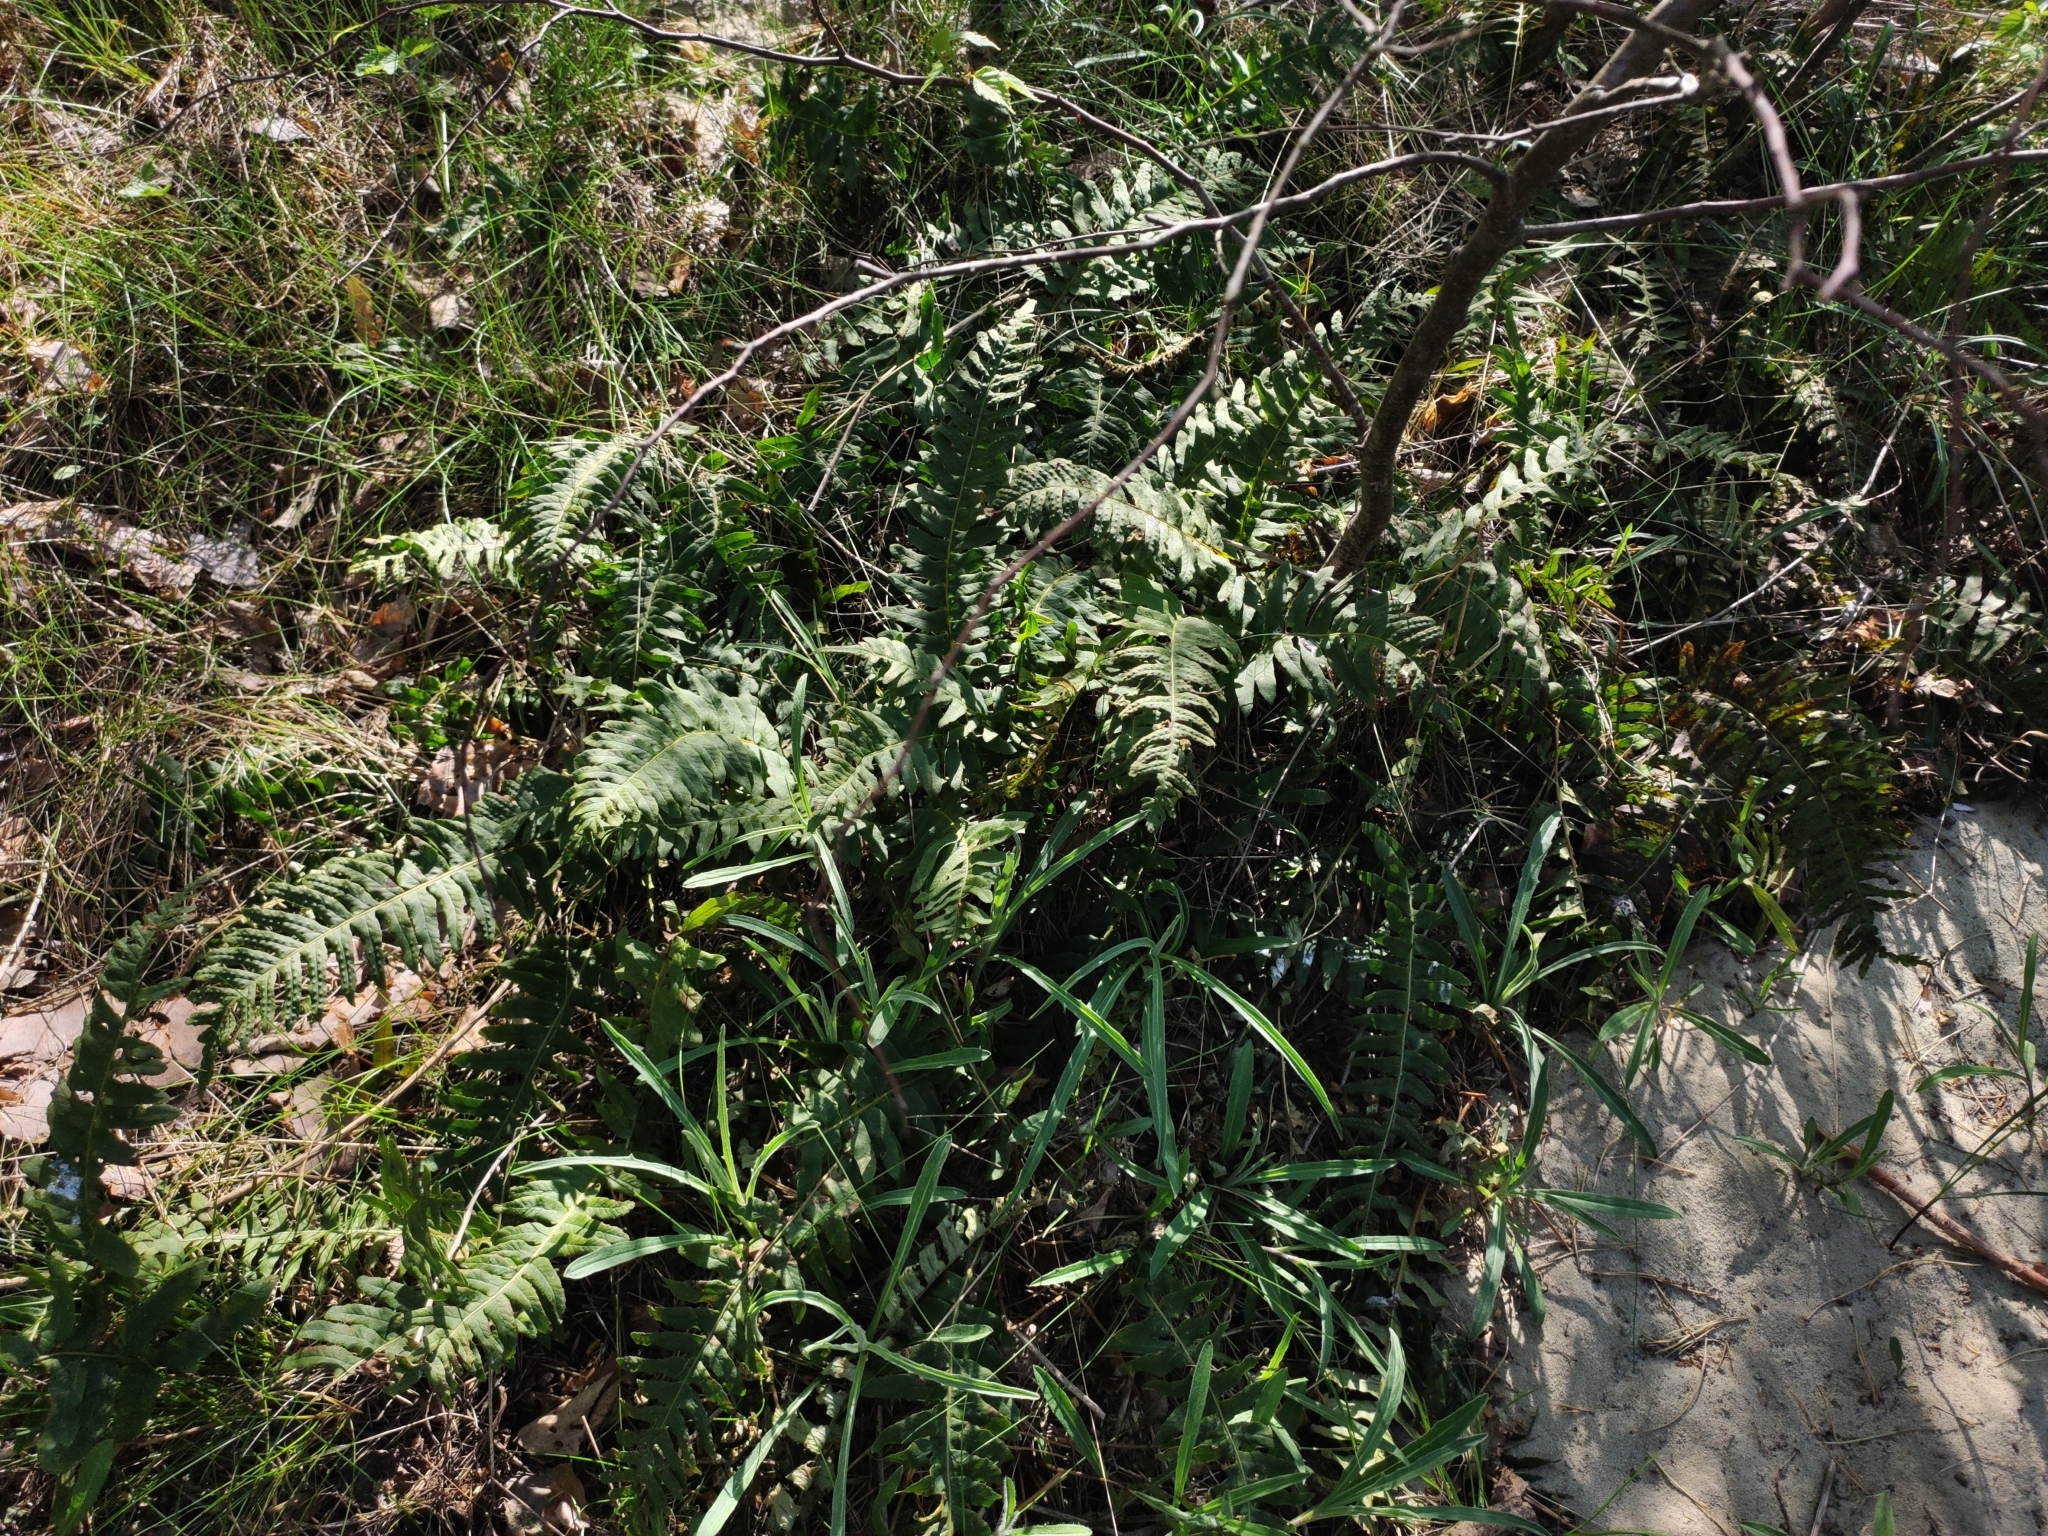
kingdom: Plantae
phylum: Tracheophyta
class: Polypodiopsida
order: Polypodiales
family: Polypodiaceae
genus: Polypodium
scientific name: Polypodium vulgare
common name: Common polypody
